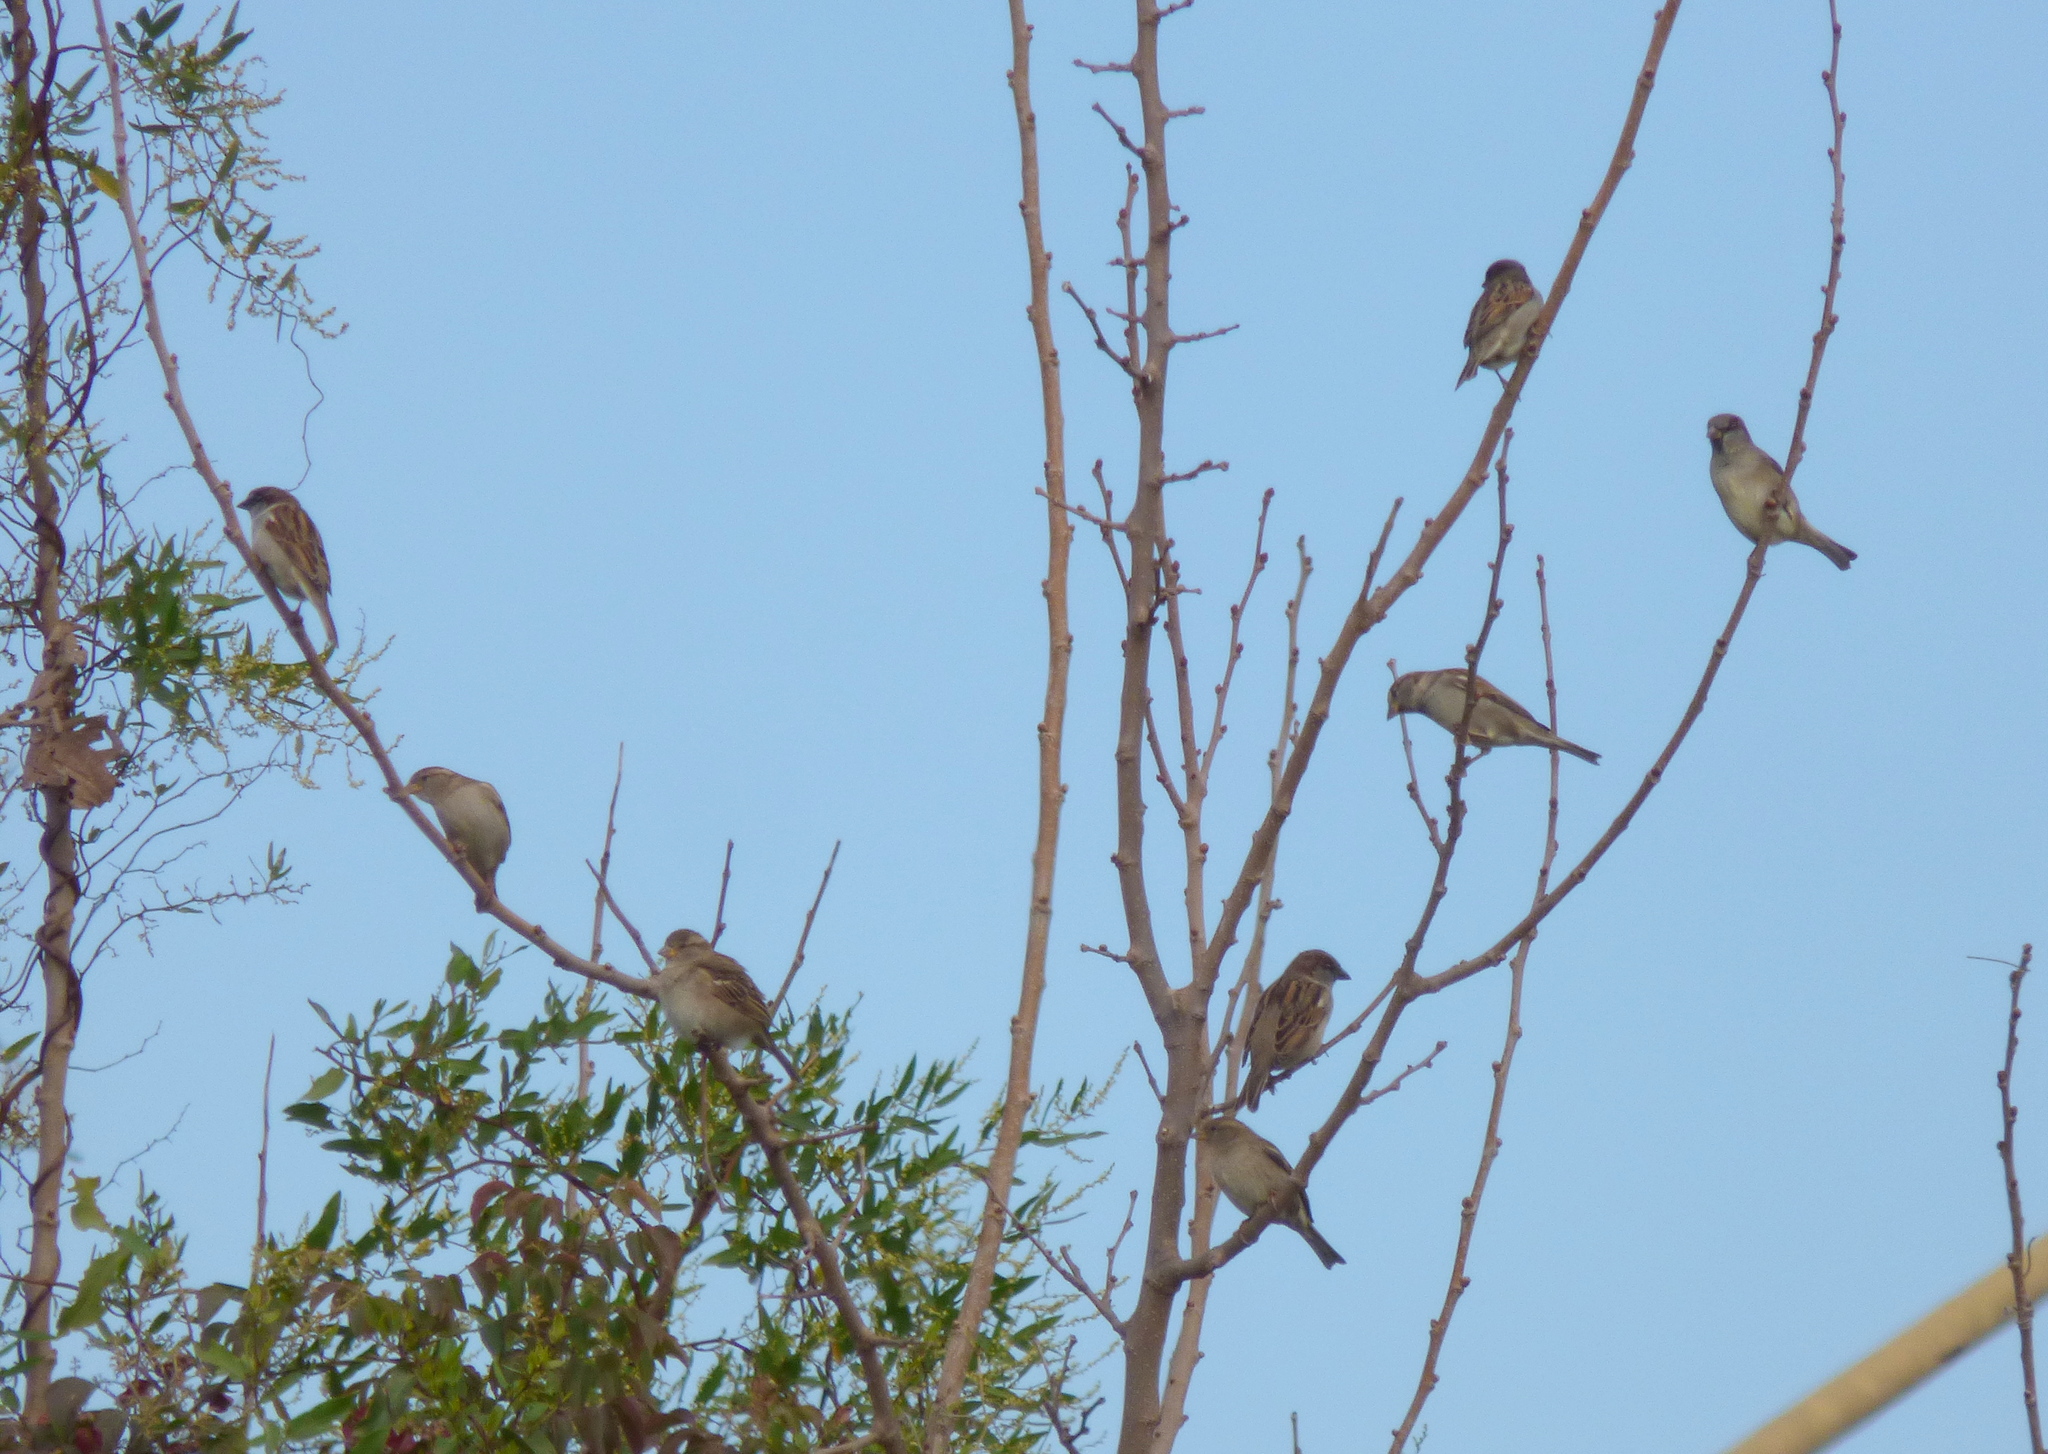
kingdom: Animalia
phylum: Chordata
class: Aves
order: Passeriformes
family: Passeridae
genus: Passer
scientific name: Passer domesticus
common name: House sparrow
